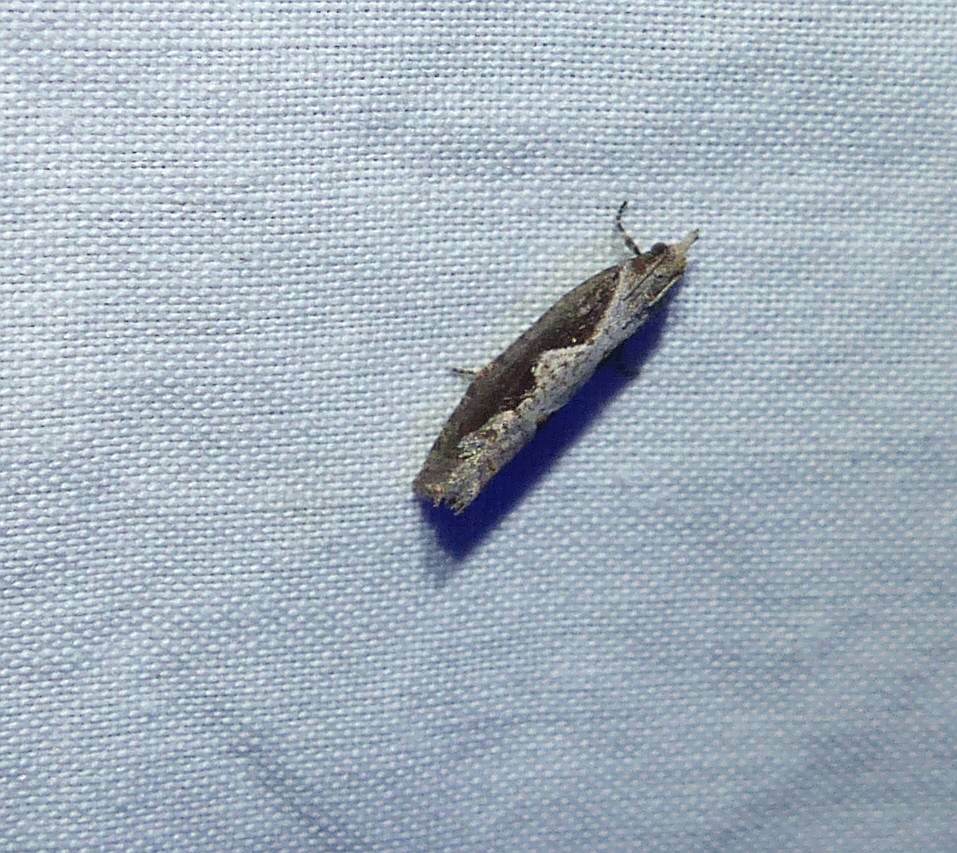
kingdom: Animalia
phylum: Arthropoda
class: Insecta
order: Lepidoptera
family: Tortricidae
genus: Epinotia
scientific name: Epinotia lindana
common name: Diamondback epinotia moth
